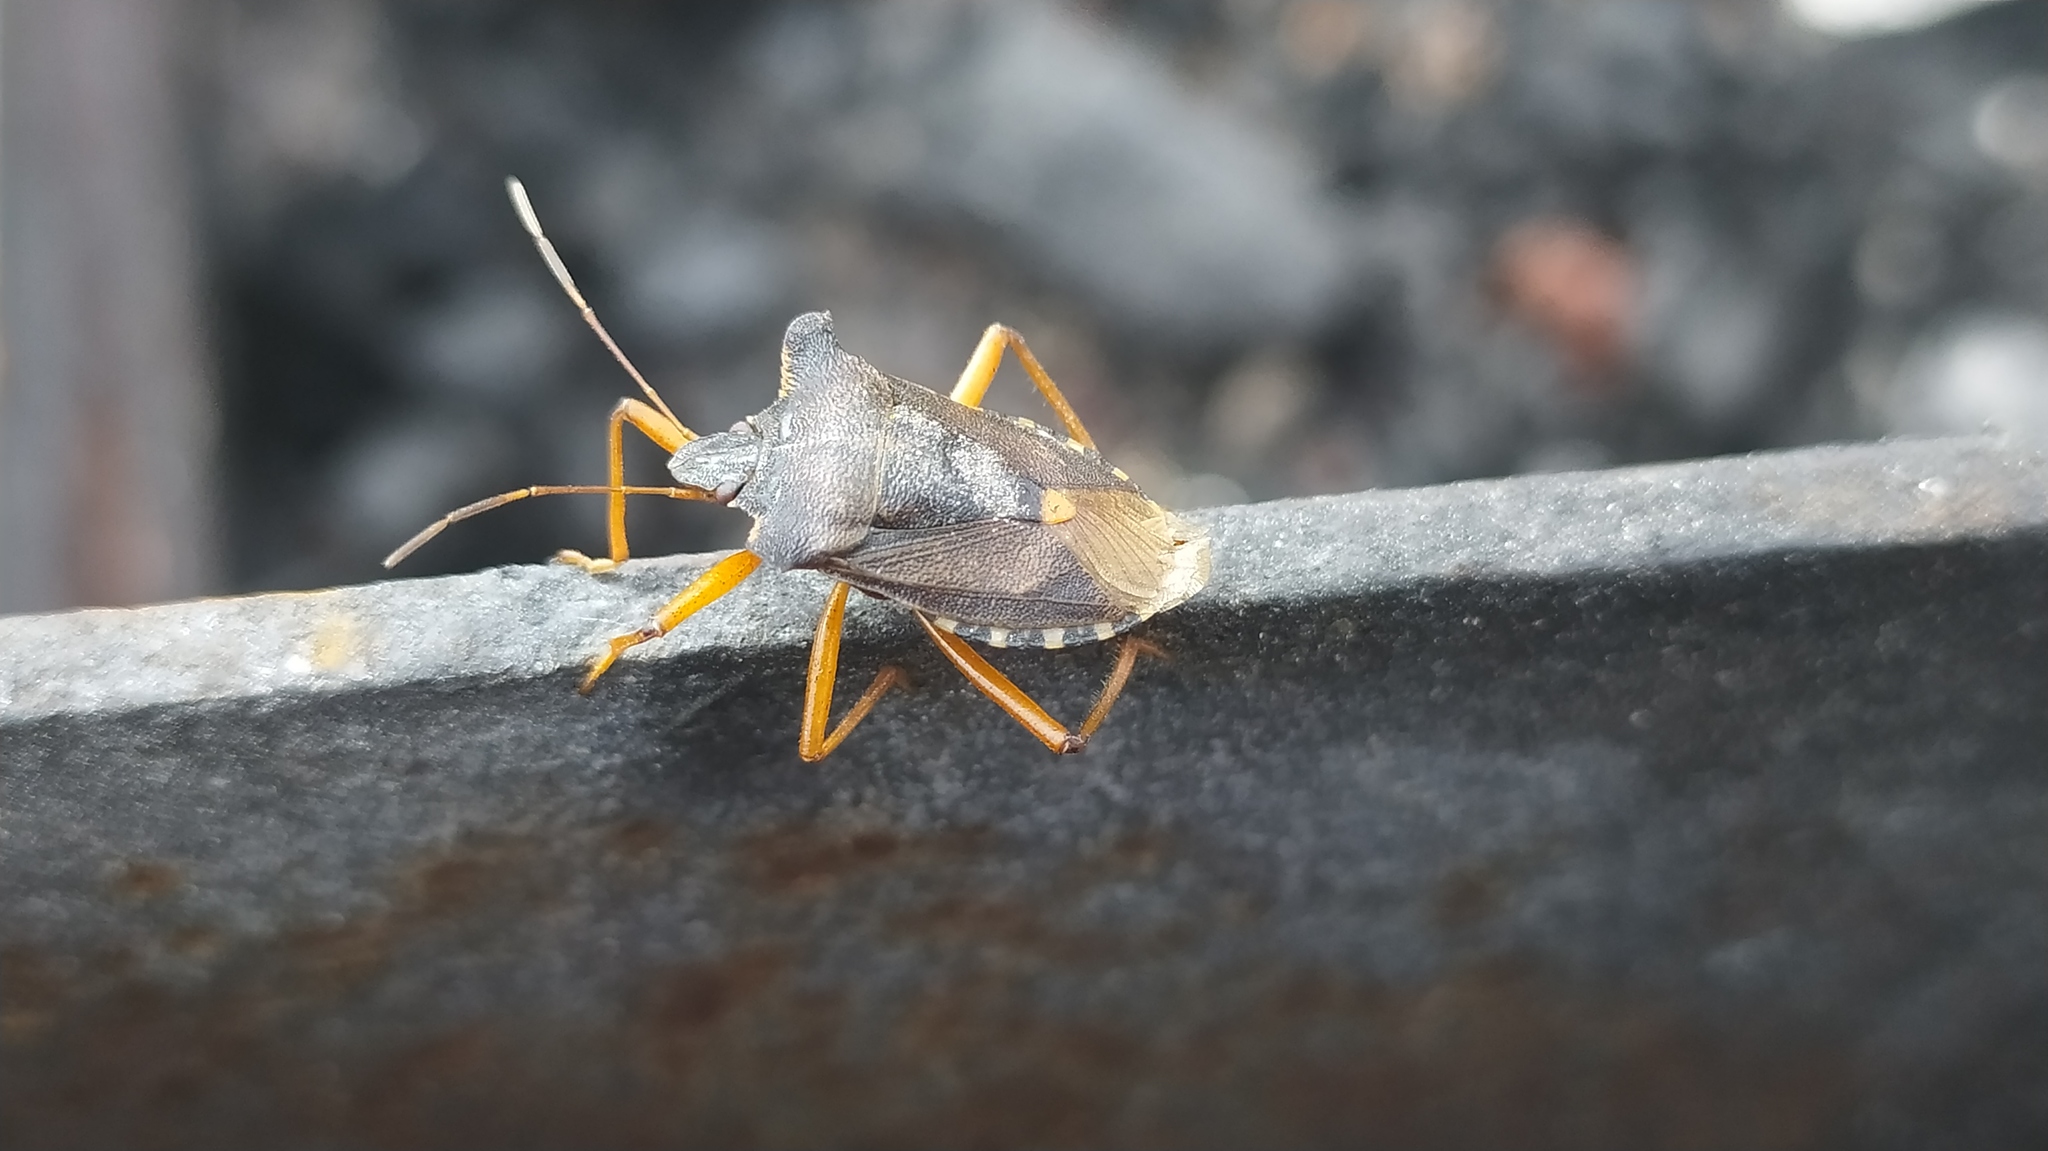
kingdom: Animalia
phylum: Arthropoda
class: Insecta
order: Hemiptera
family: Pentatomidae
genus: Pentatoma
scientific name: Pentatoma rufipes
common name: Forest bug
